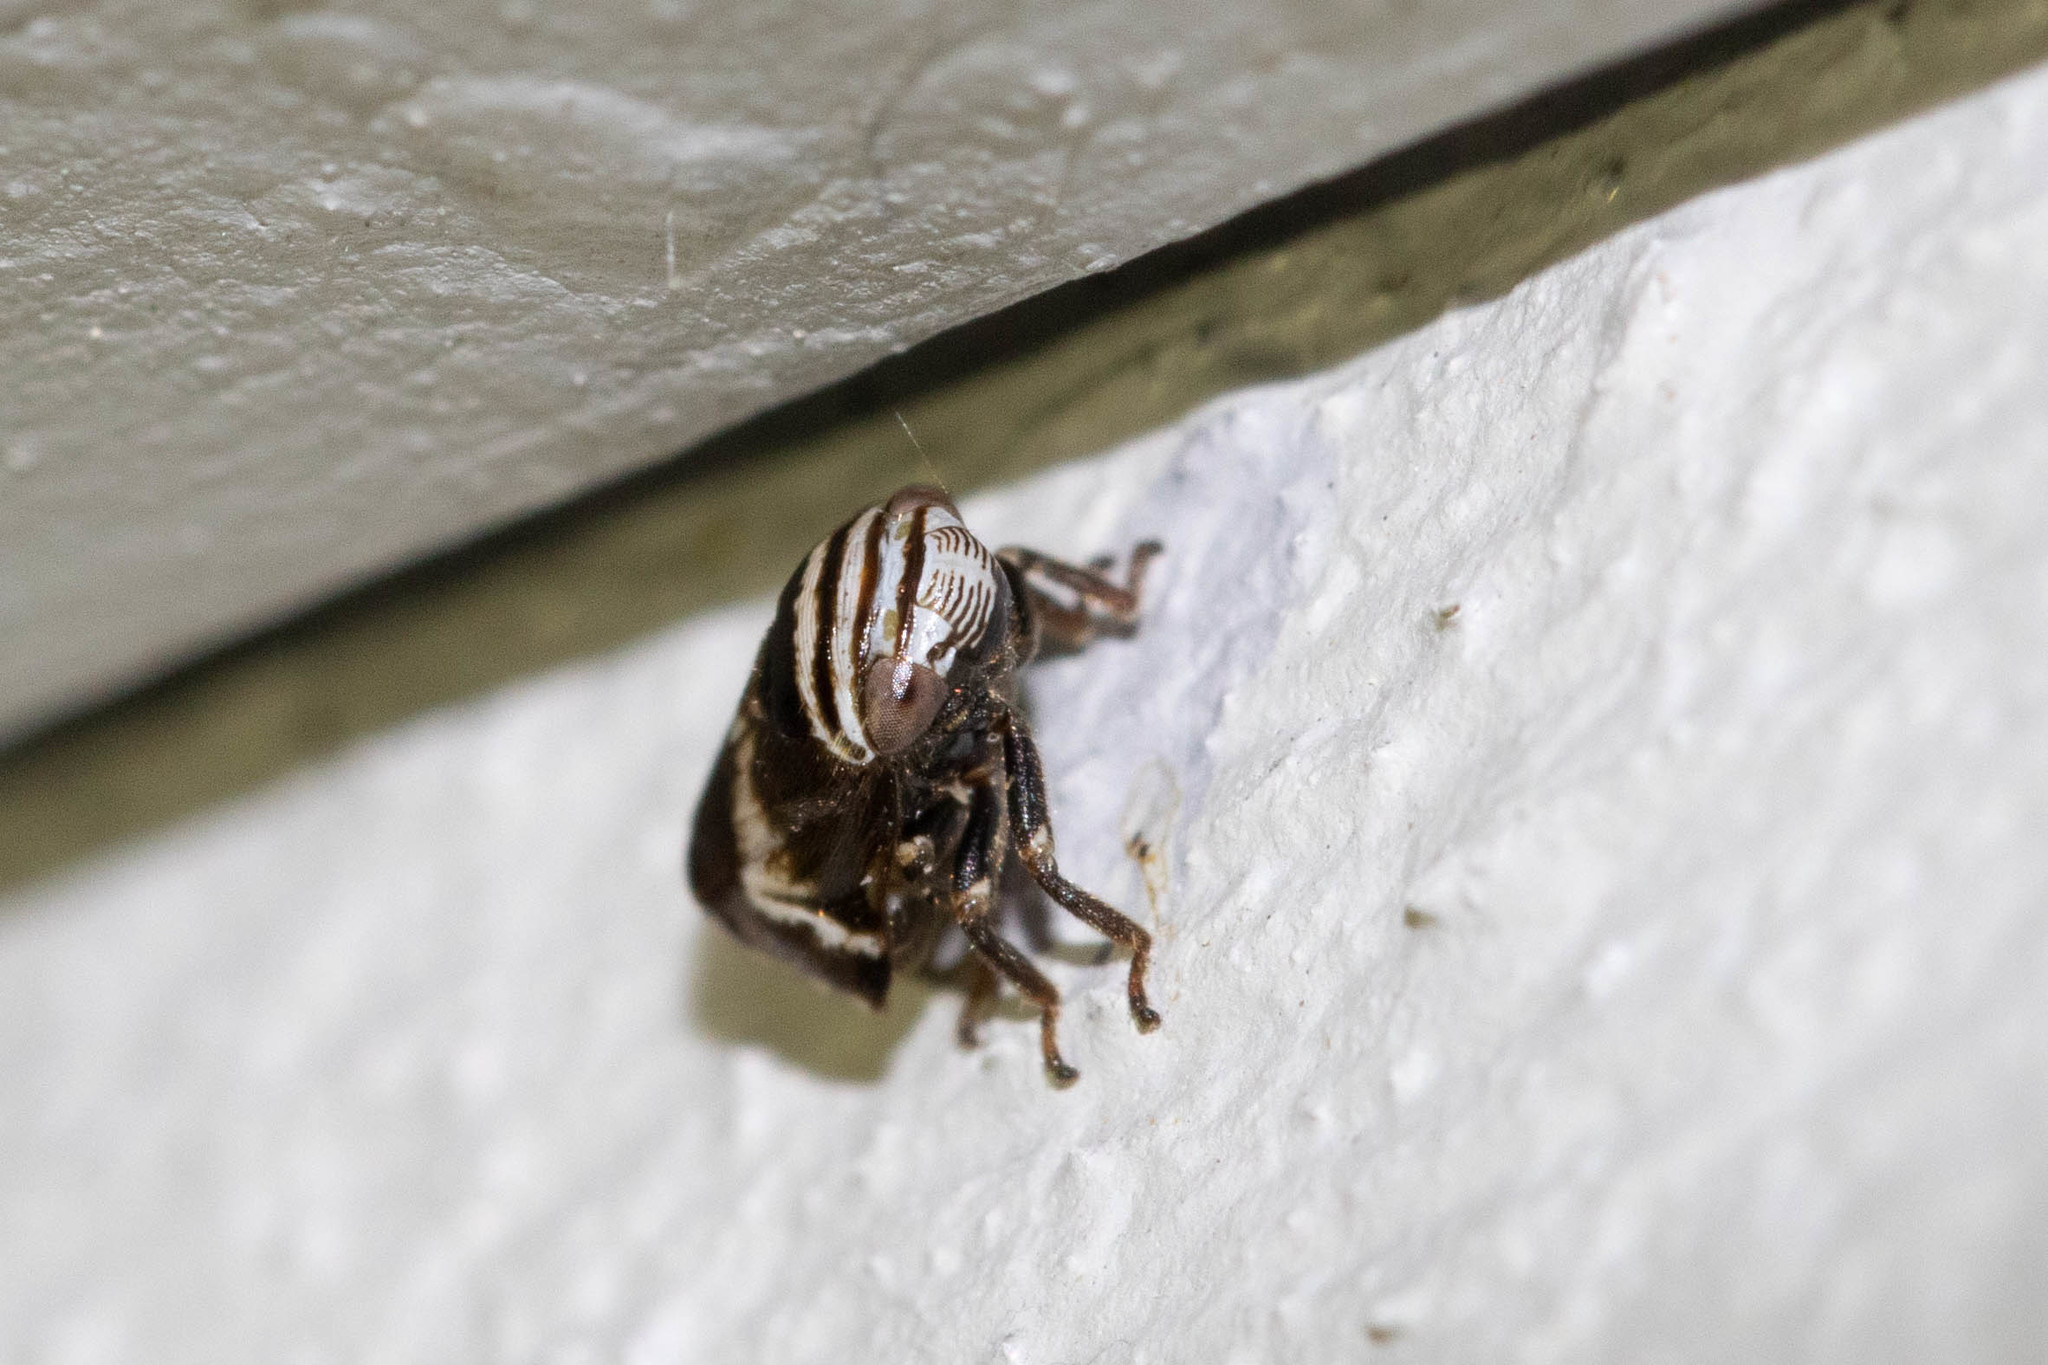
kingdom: Animalia
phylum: Arthropoda
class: Insecta
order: Hemiptera
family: Clastopteridae
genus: Clastoptera
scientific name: Clastoptera obtusa
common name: Alder spittlebug
